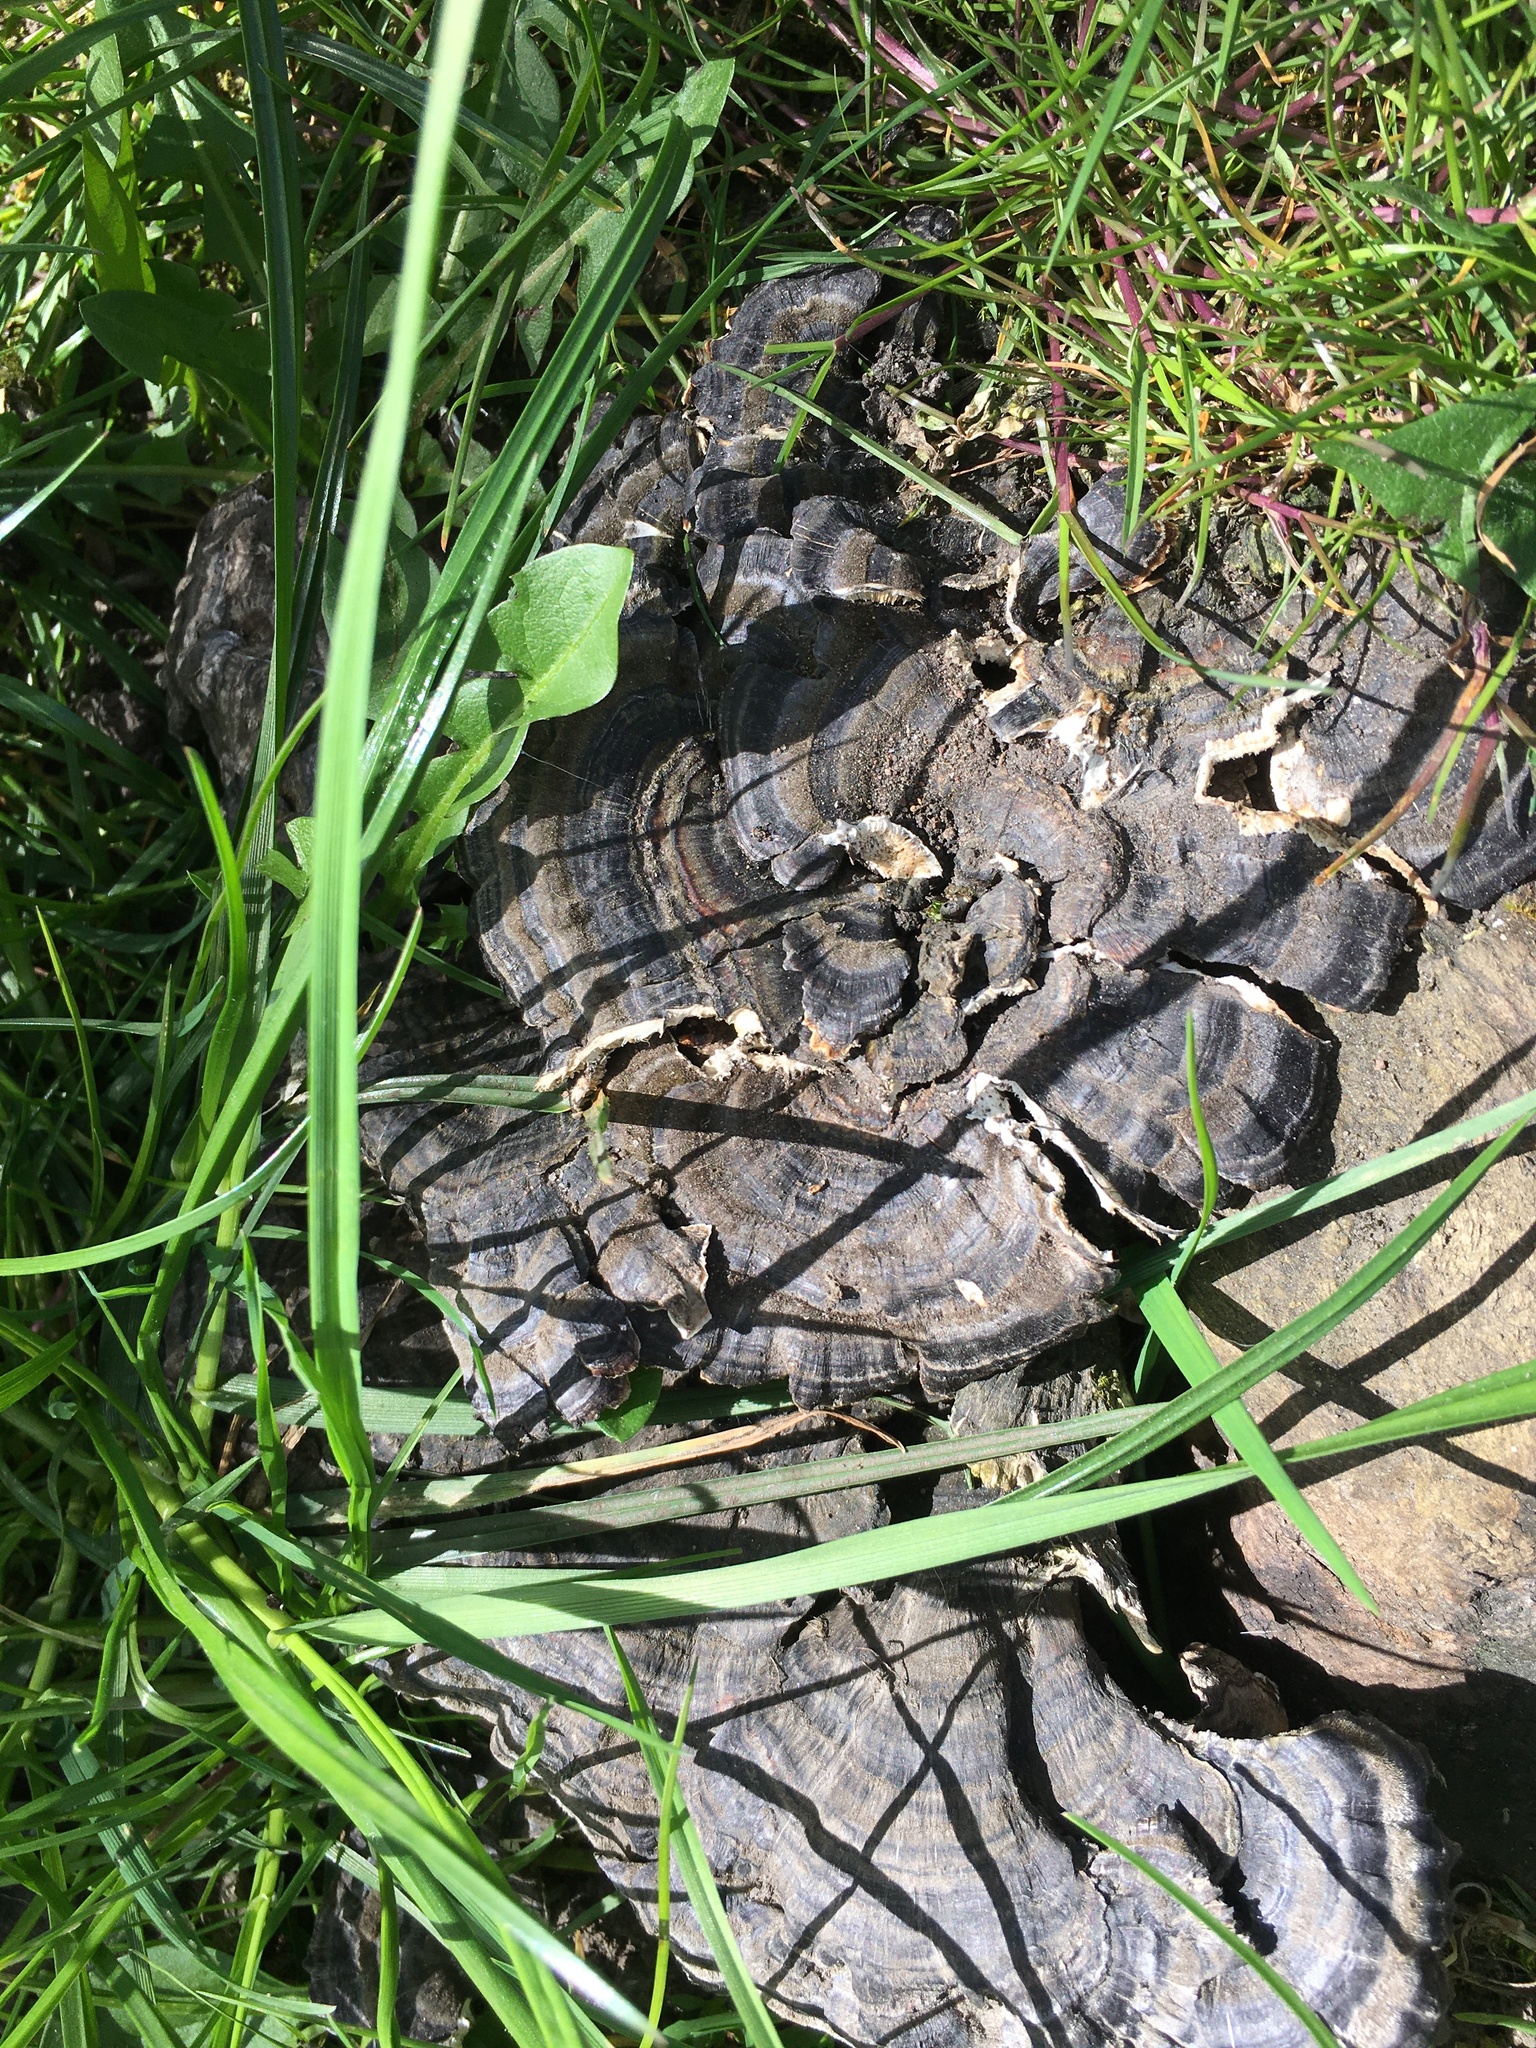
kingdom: Fungi
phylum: Basidiomycota
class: Agaricomycetes
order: Polyporales
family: Polyporaceae
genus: Trametes
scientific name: Trametes versicolor
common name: Turkeytail
